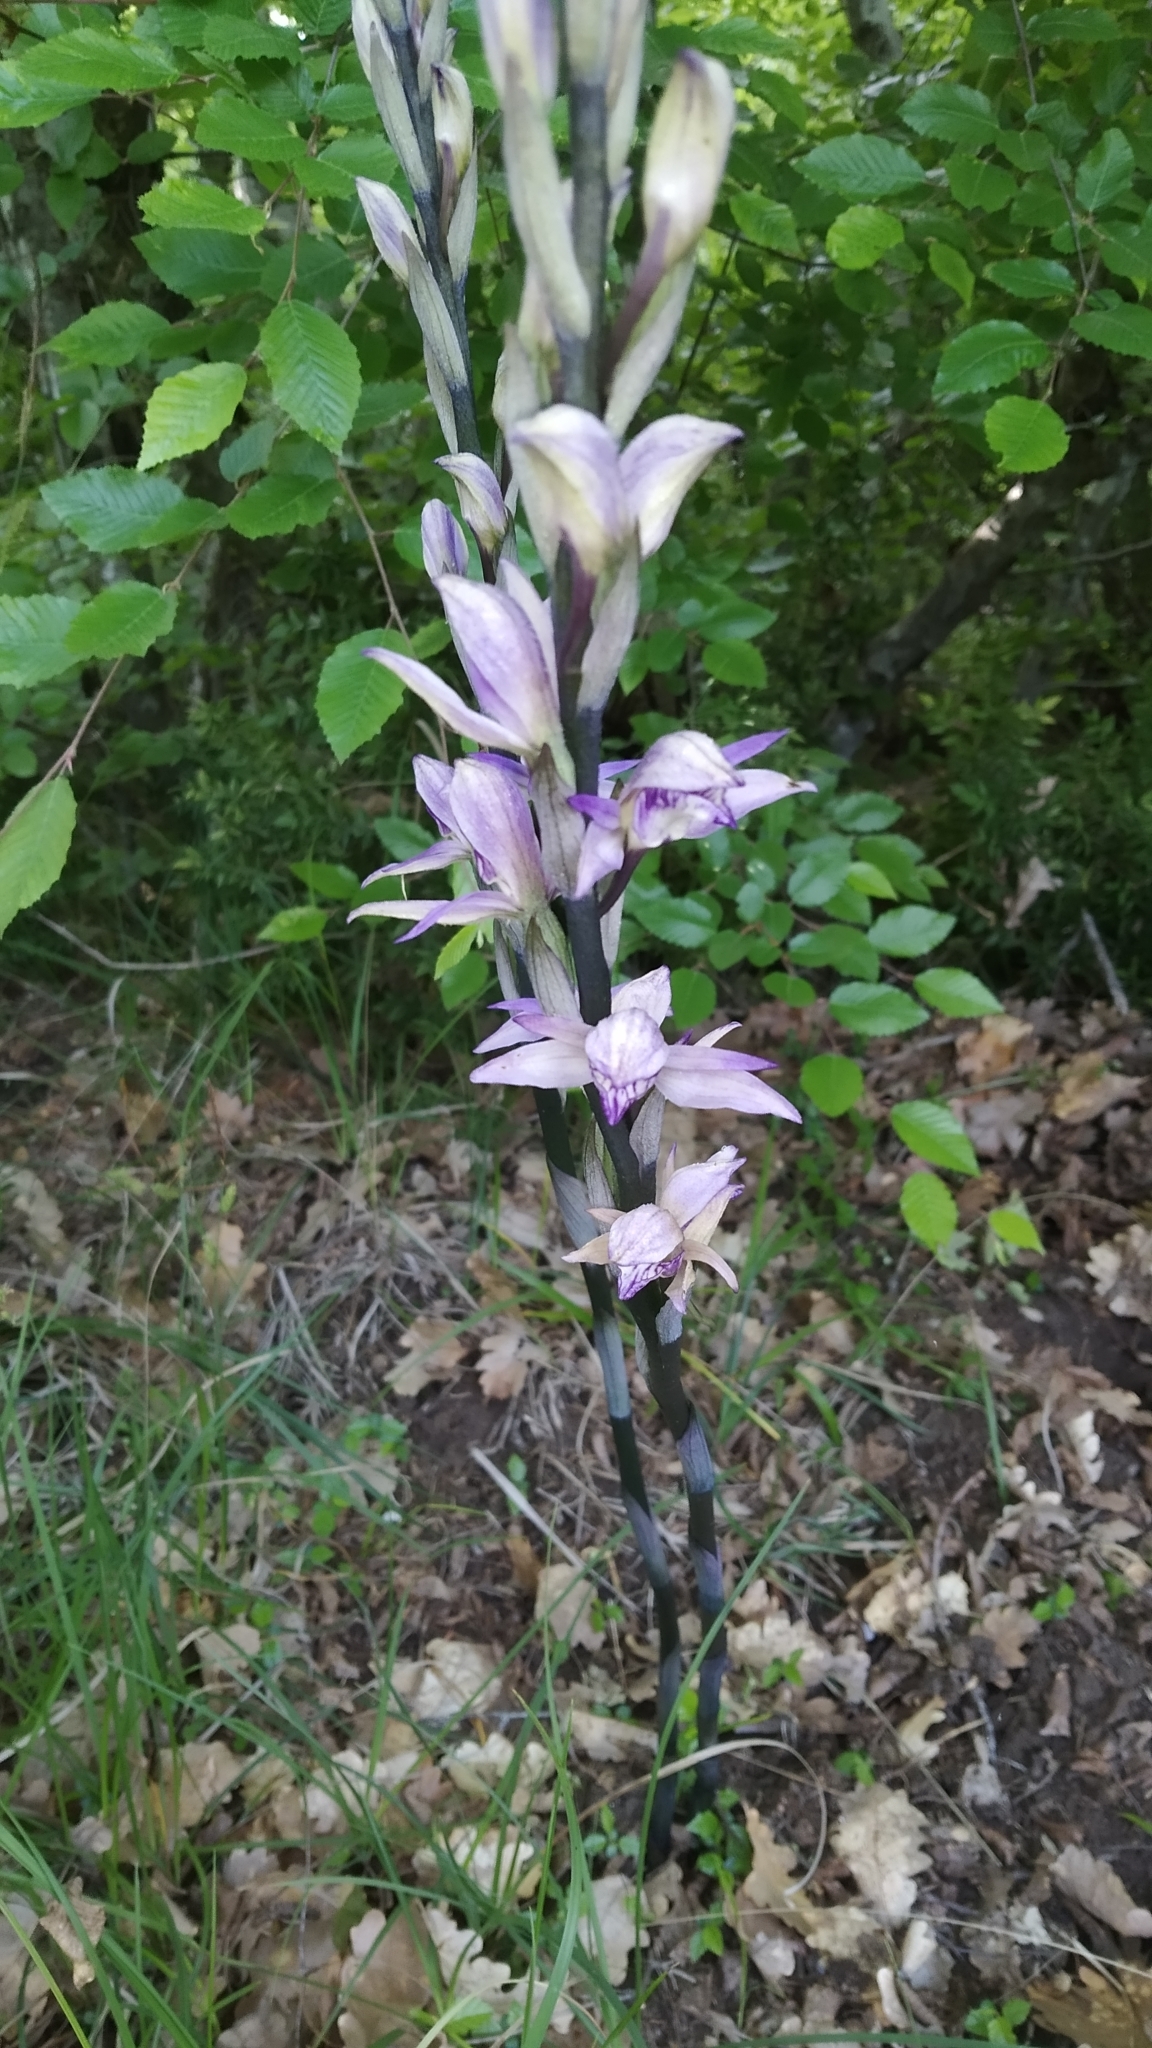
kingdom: Plantae
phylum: Tracheophyta
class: Liliopsida
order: Asparagales
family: Orchidaceae
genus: Limodorum
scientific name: Limodorum abortivum
